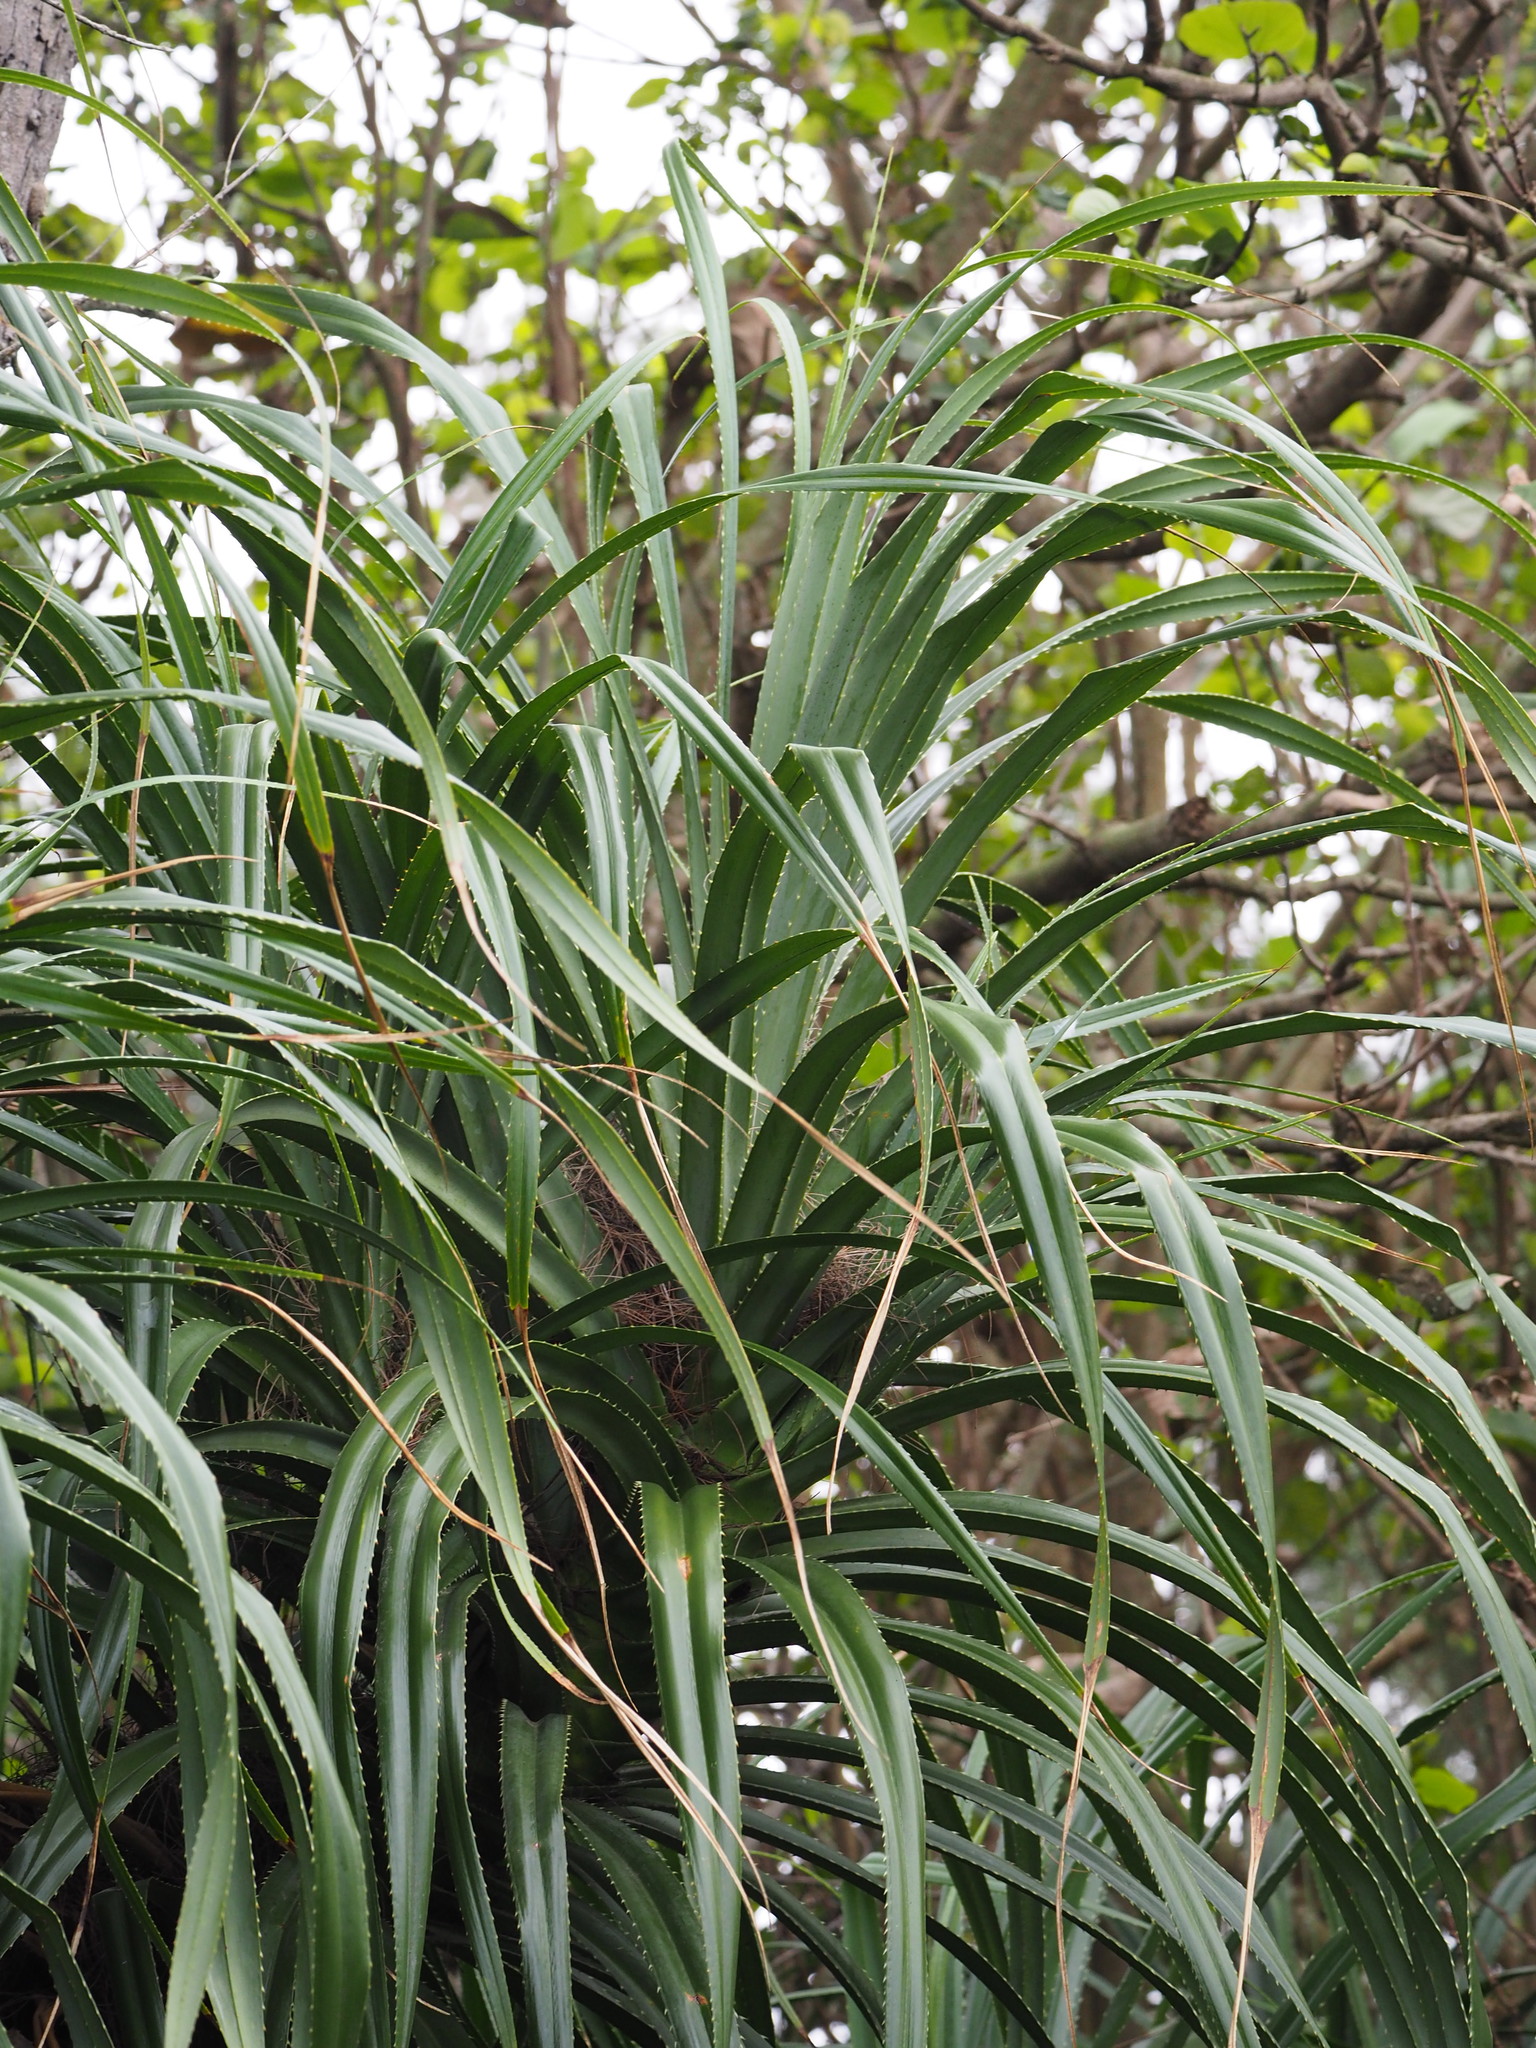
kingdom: Plantae
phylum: Tracheophyta
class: Liliopsida
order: Pandanales
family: Pandanaceae
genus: Pandanus
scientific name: Pandanus odorifer
